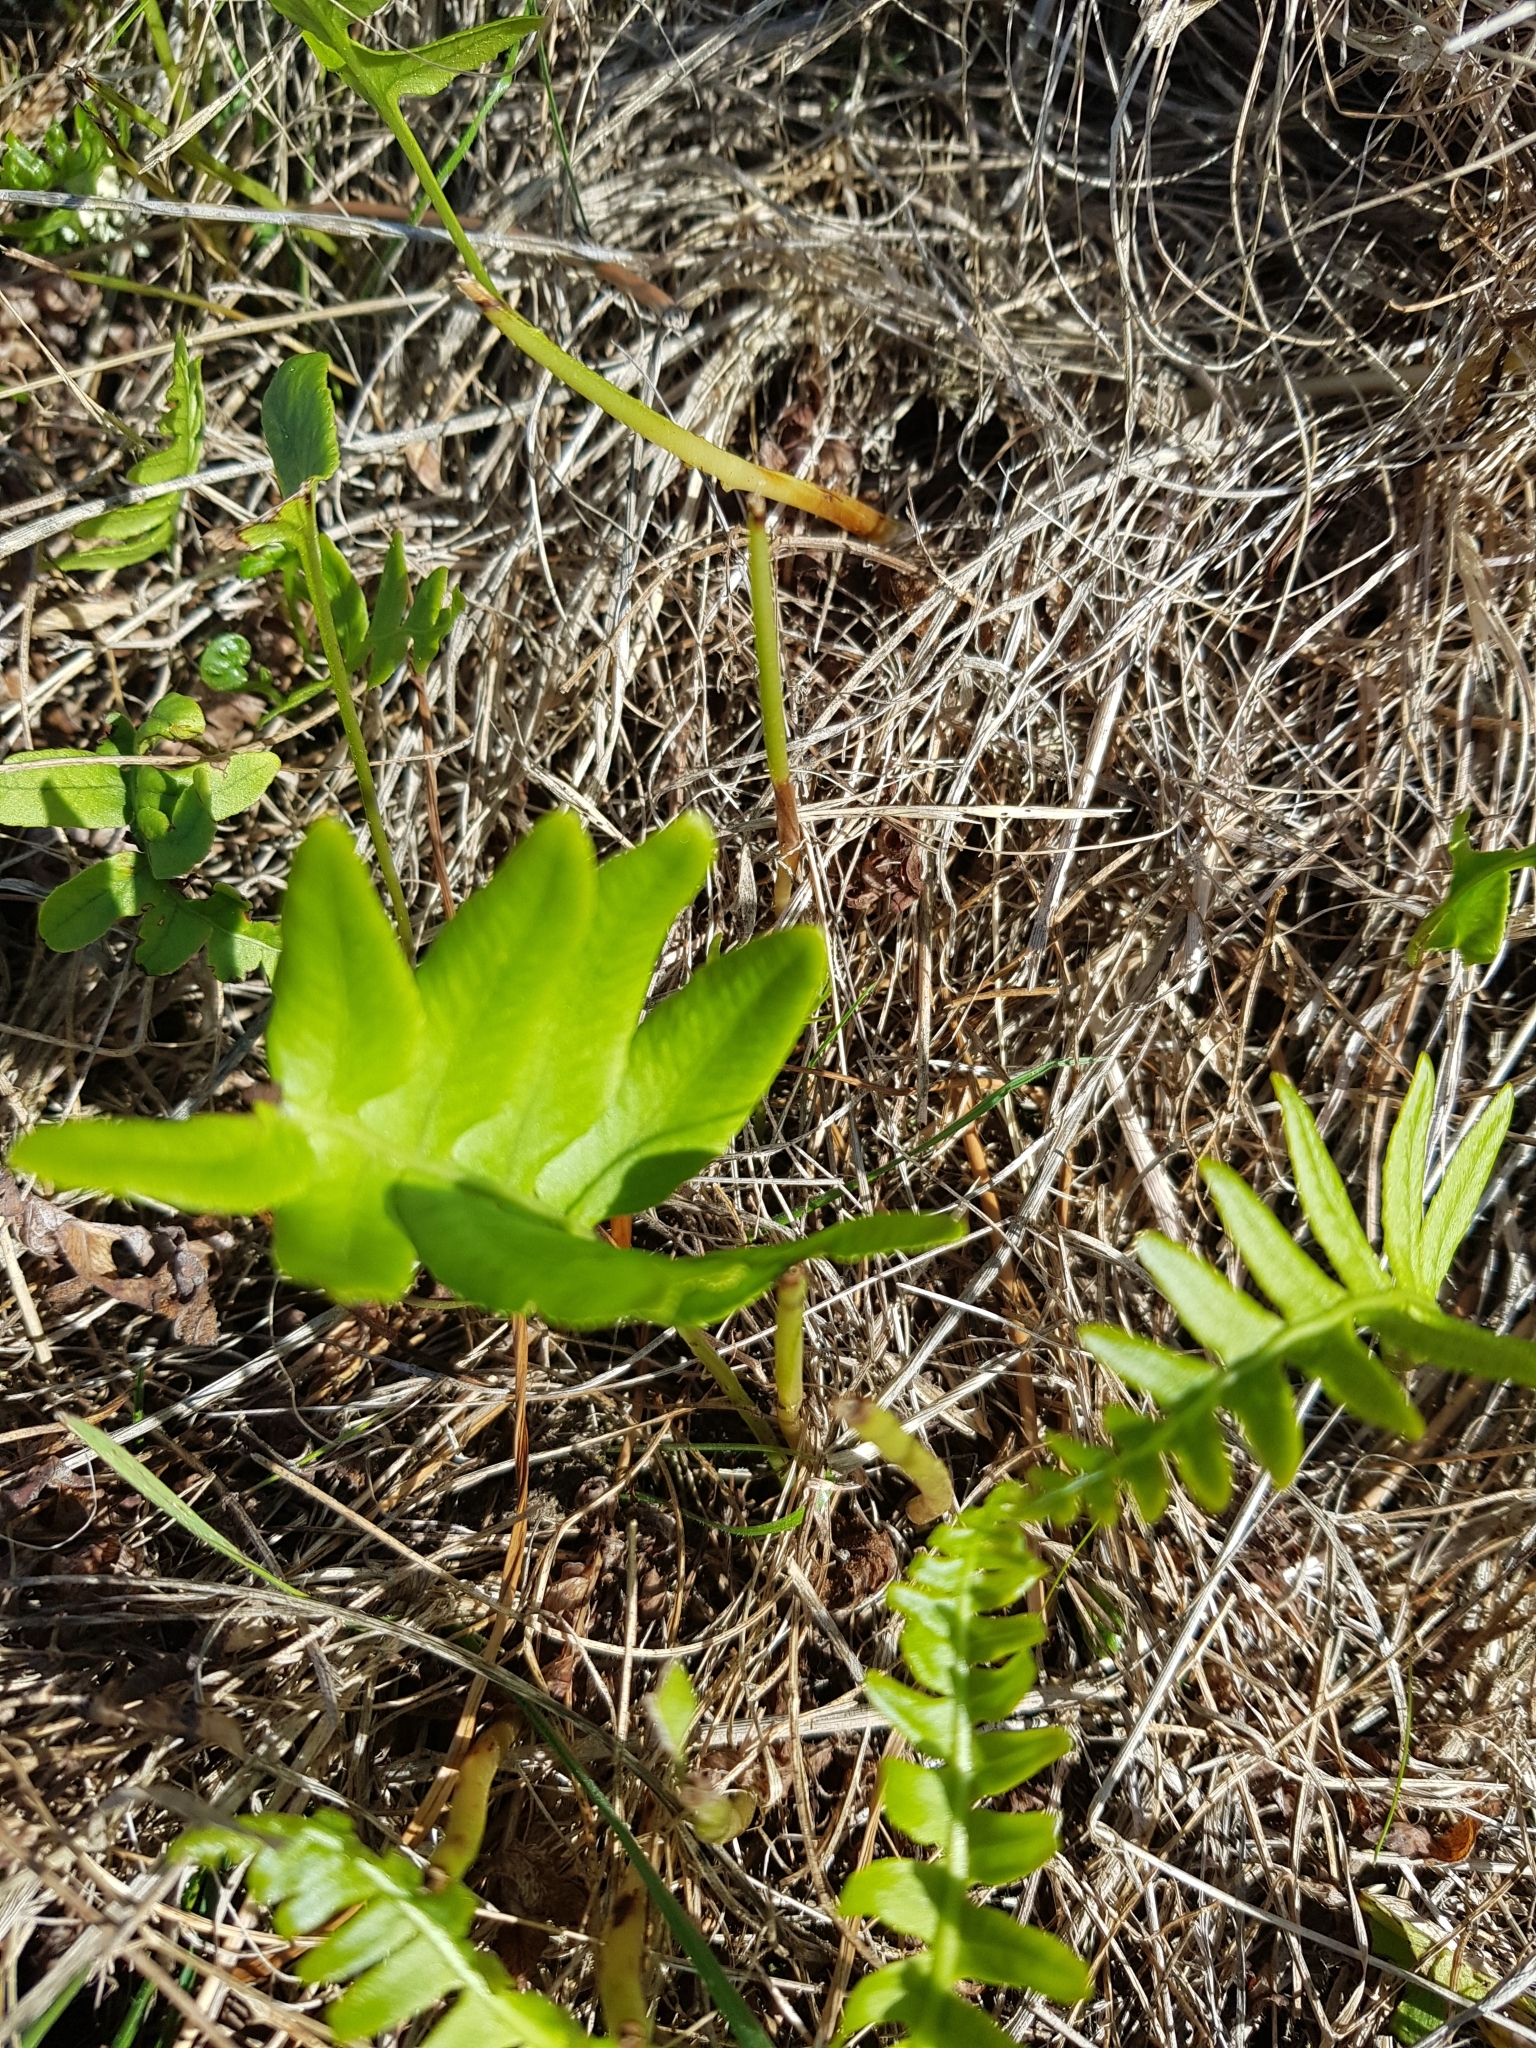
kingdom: Plantae
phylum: Tracheophyta
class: Polypodiopsida
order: Polypodiales
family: Polypodiaceae
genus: Polypodium
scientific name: Polypodium vulgare
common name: Common polypody
